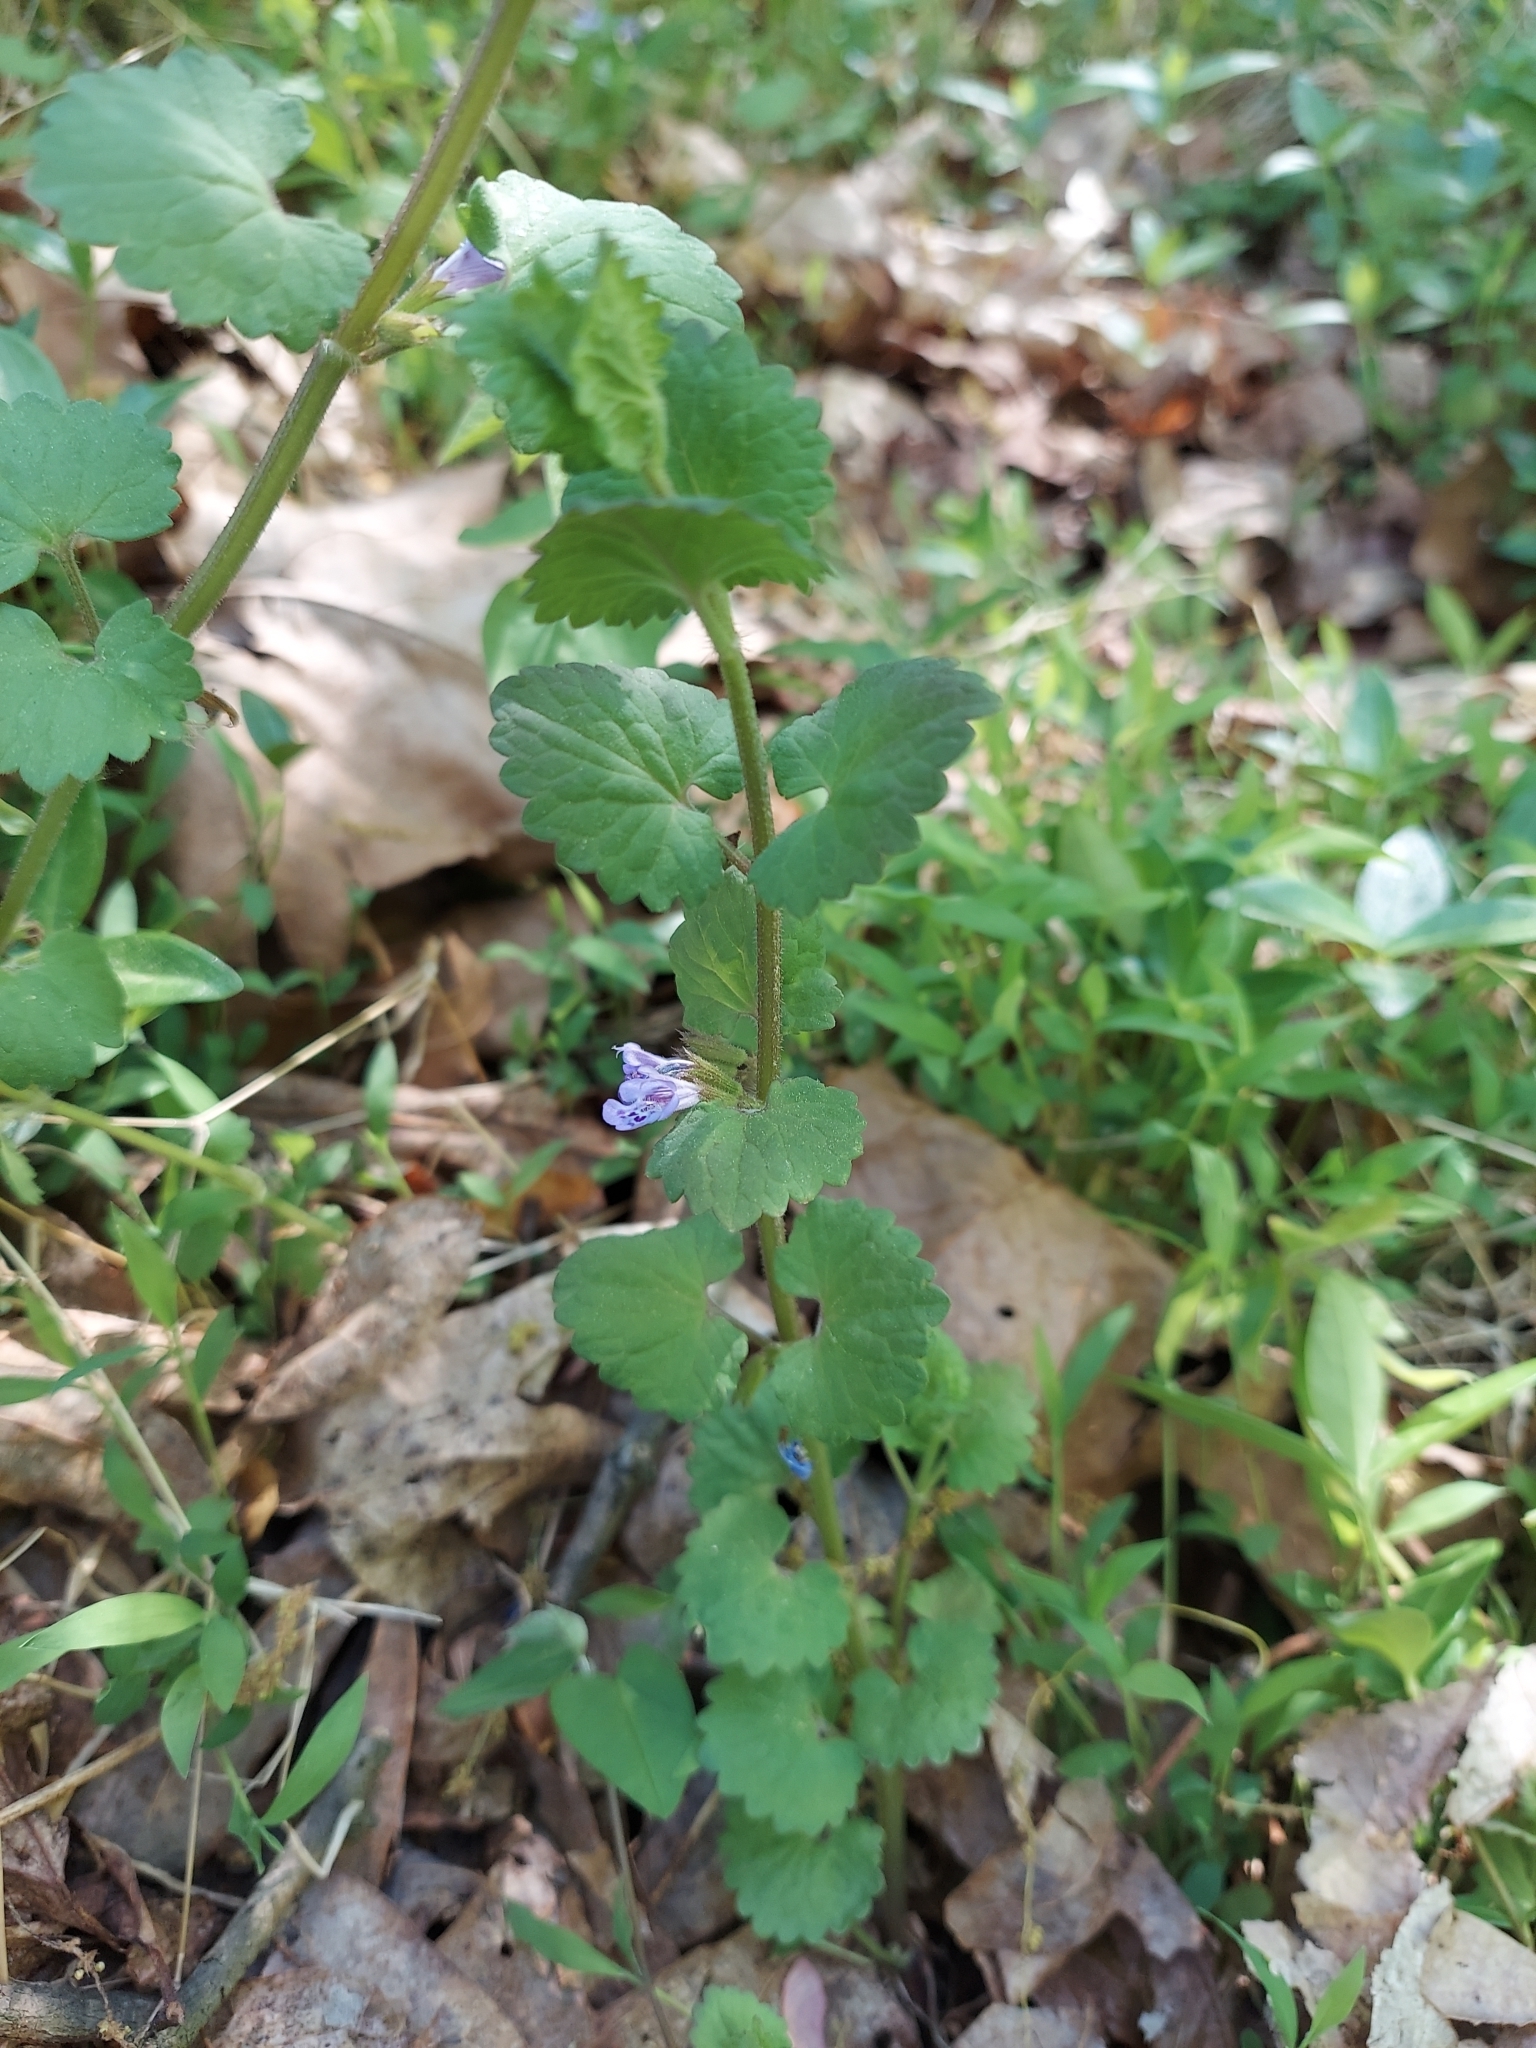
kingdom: Plantae
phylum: Tracheophyta
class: Magnoliopsida
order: Lamiales
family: Lamiaceae
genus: Glechoma
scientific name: Glechoma hederacea
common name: Ground ivy
